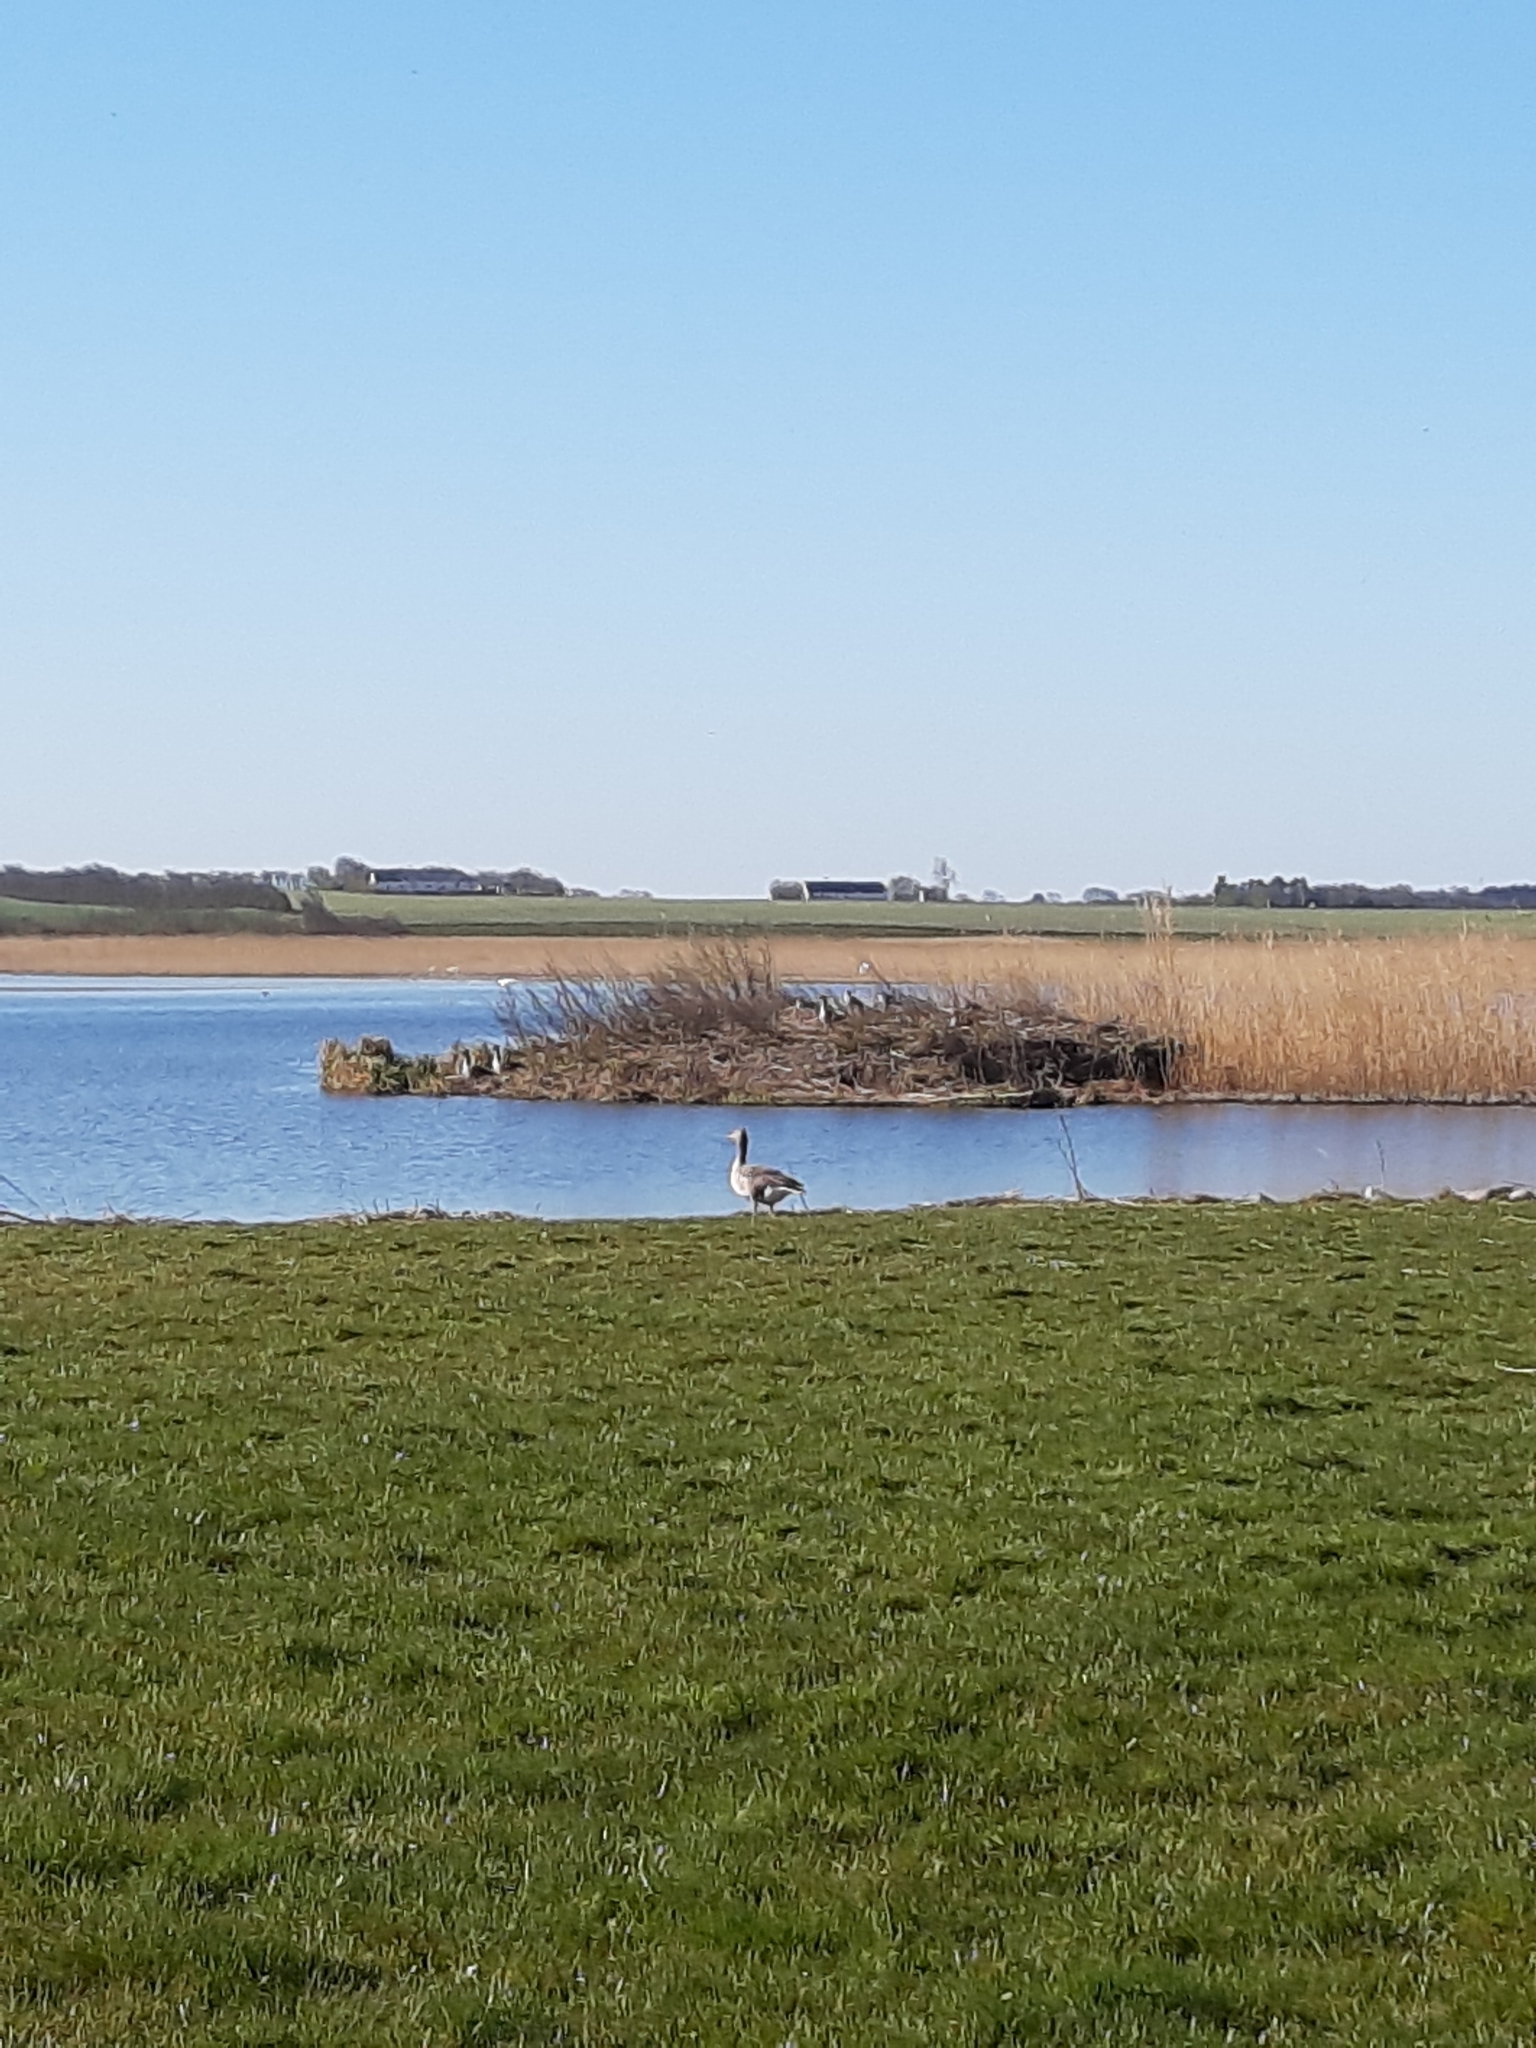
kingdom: Animalia
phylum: Chordata
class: Aves
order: Anseriformes
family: Anatidae
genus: Anser
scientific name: Anser anser
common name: Greylag goose
